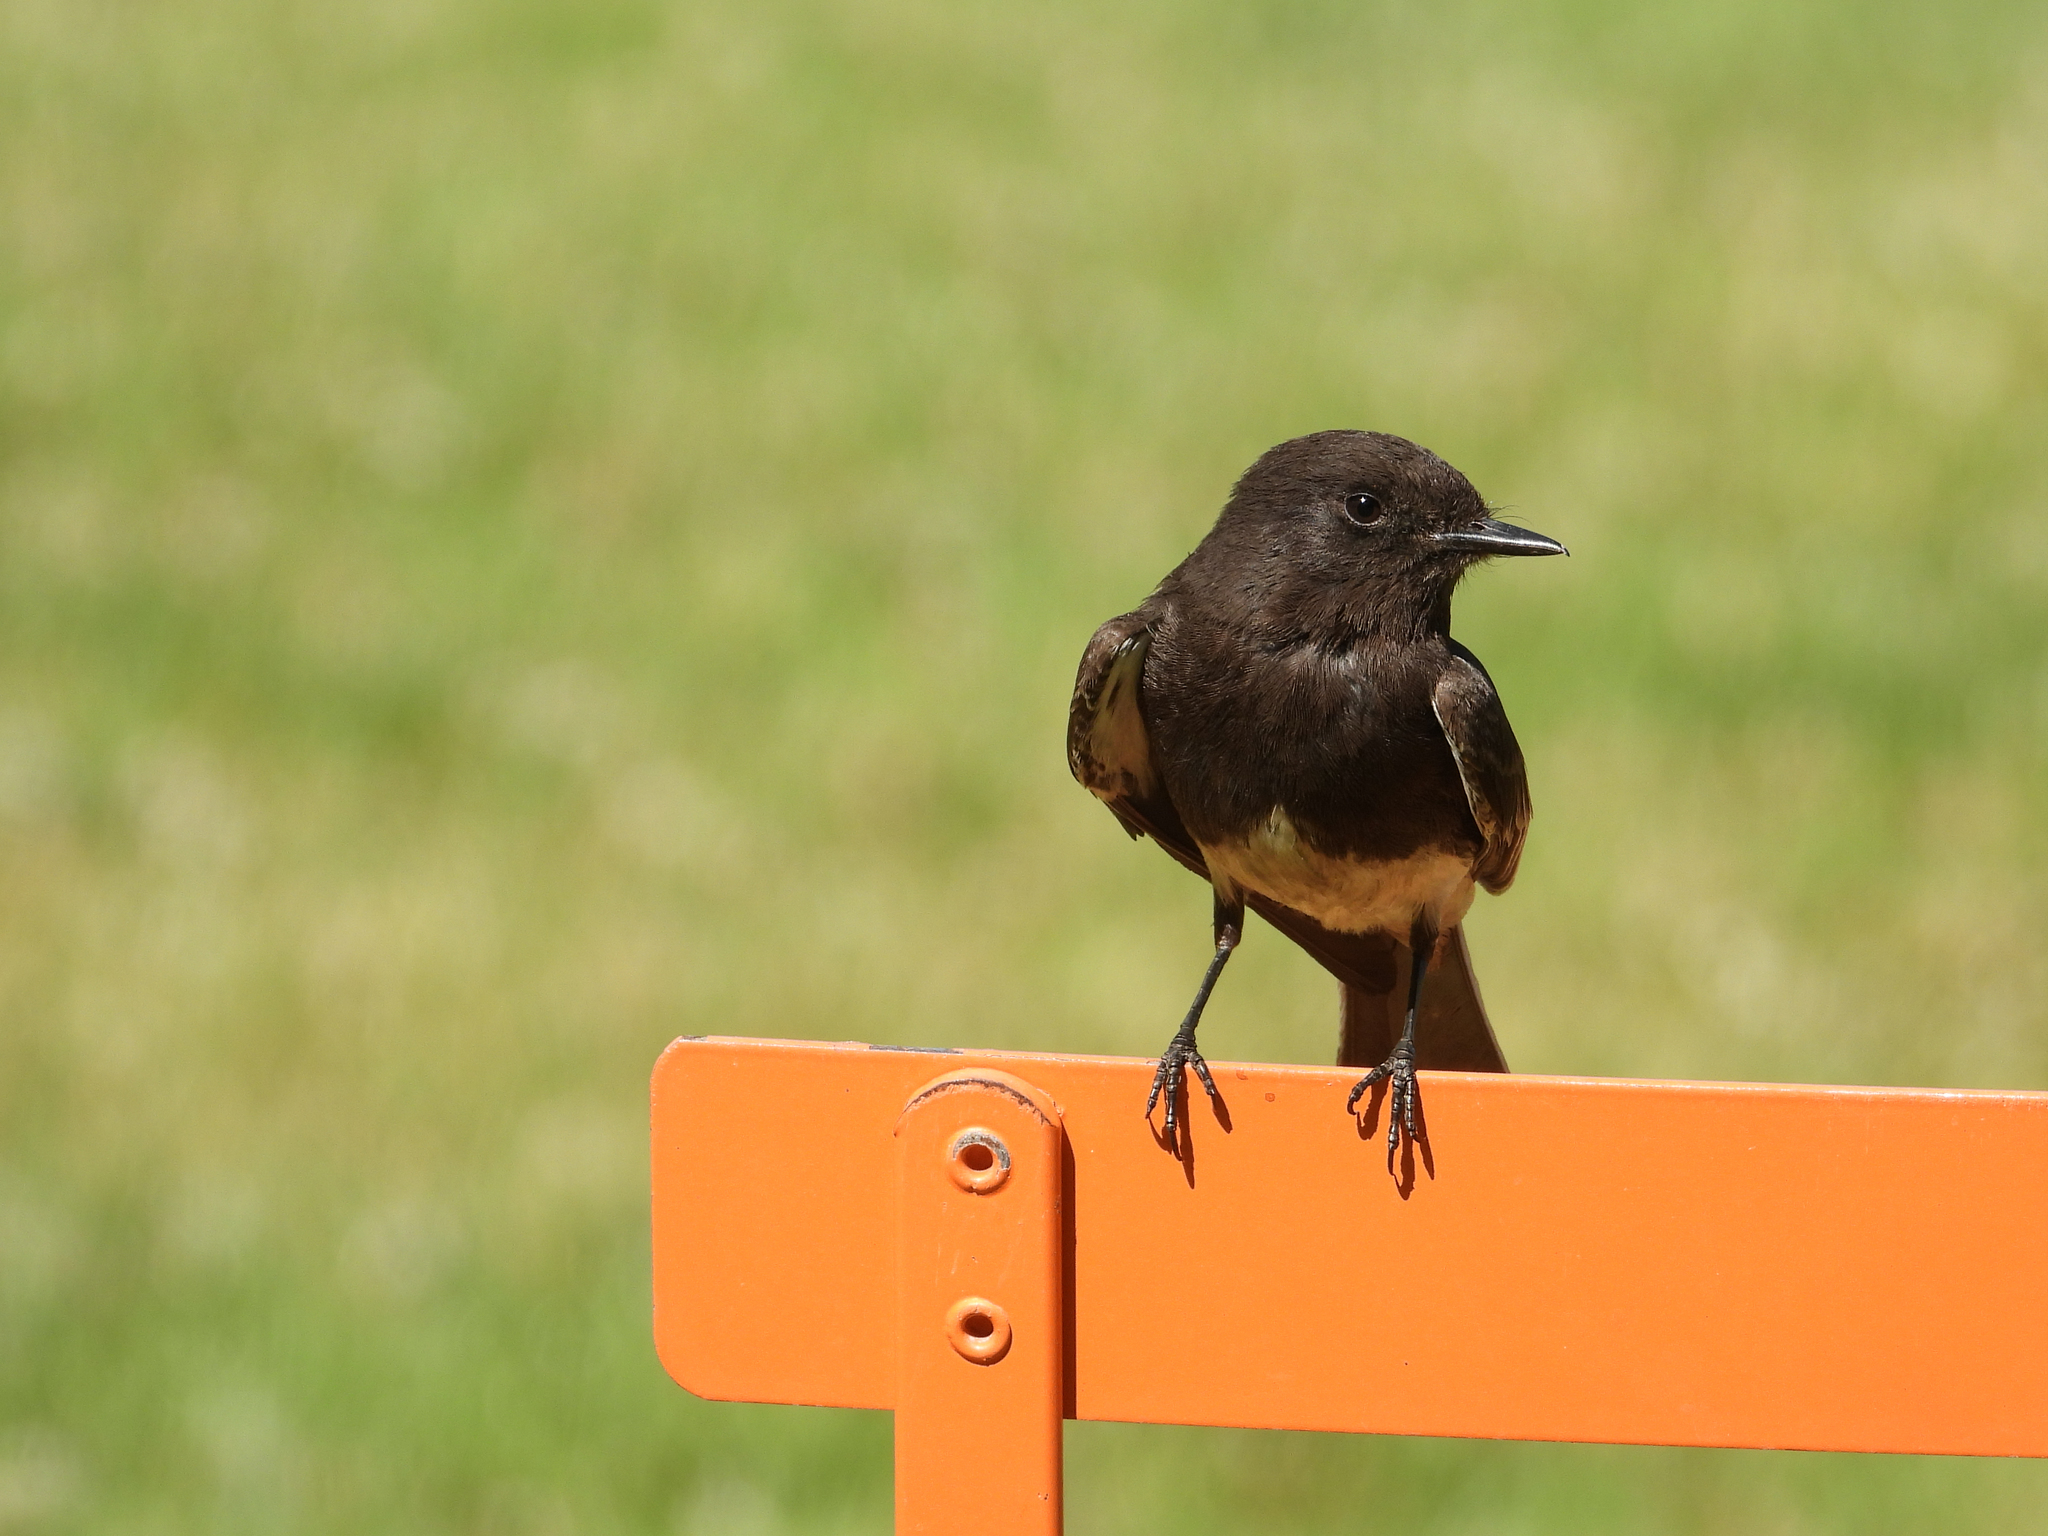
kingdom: Animalia
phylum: Chordata
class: Aves
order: Passeriformes
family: Tyrannidae
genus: Sayornis
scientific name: Sayornis nigricans
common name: Black phoebe
